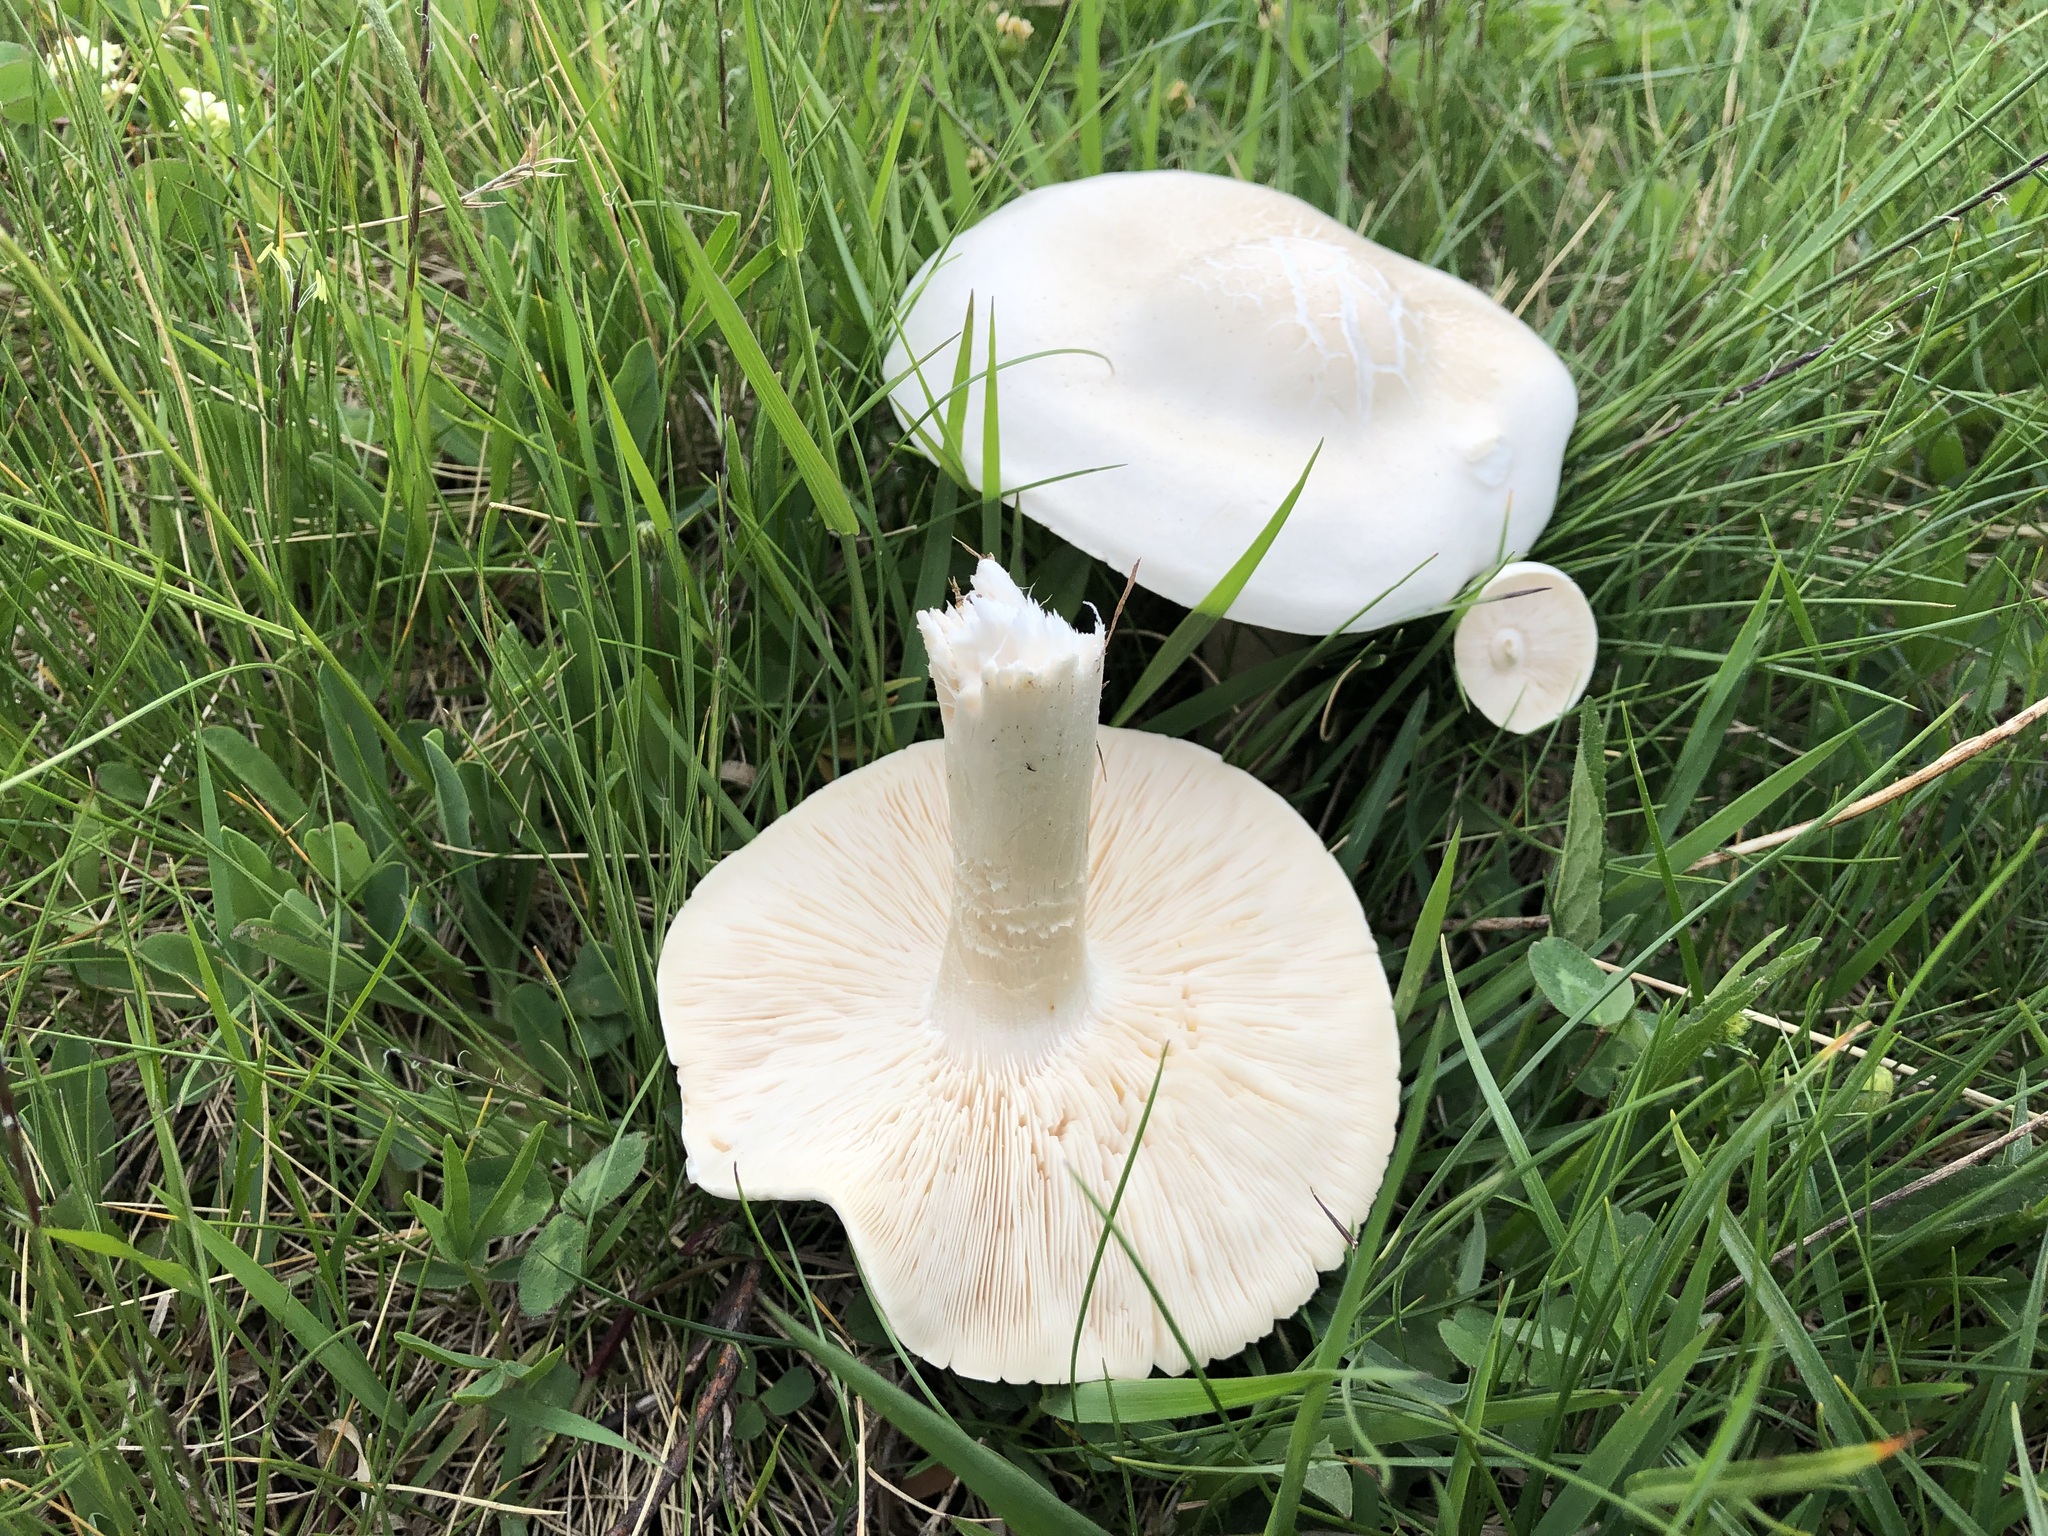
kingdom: Fungi
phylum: Basidiomycota
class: Agaricomycetes
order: Agaricales
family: Tricholomataceae
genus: Melanoleuca
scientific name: Melanoleuca strictipes
